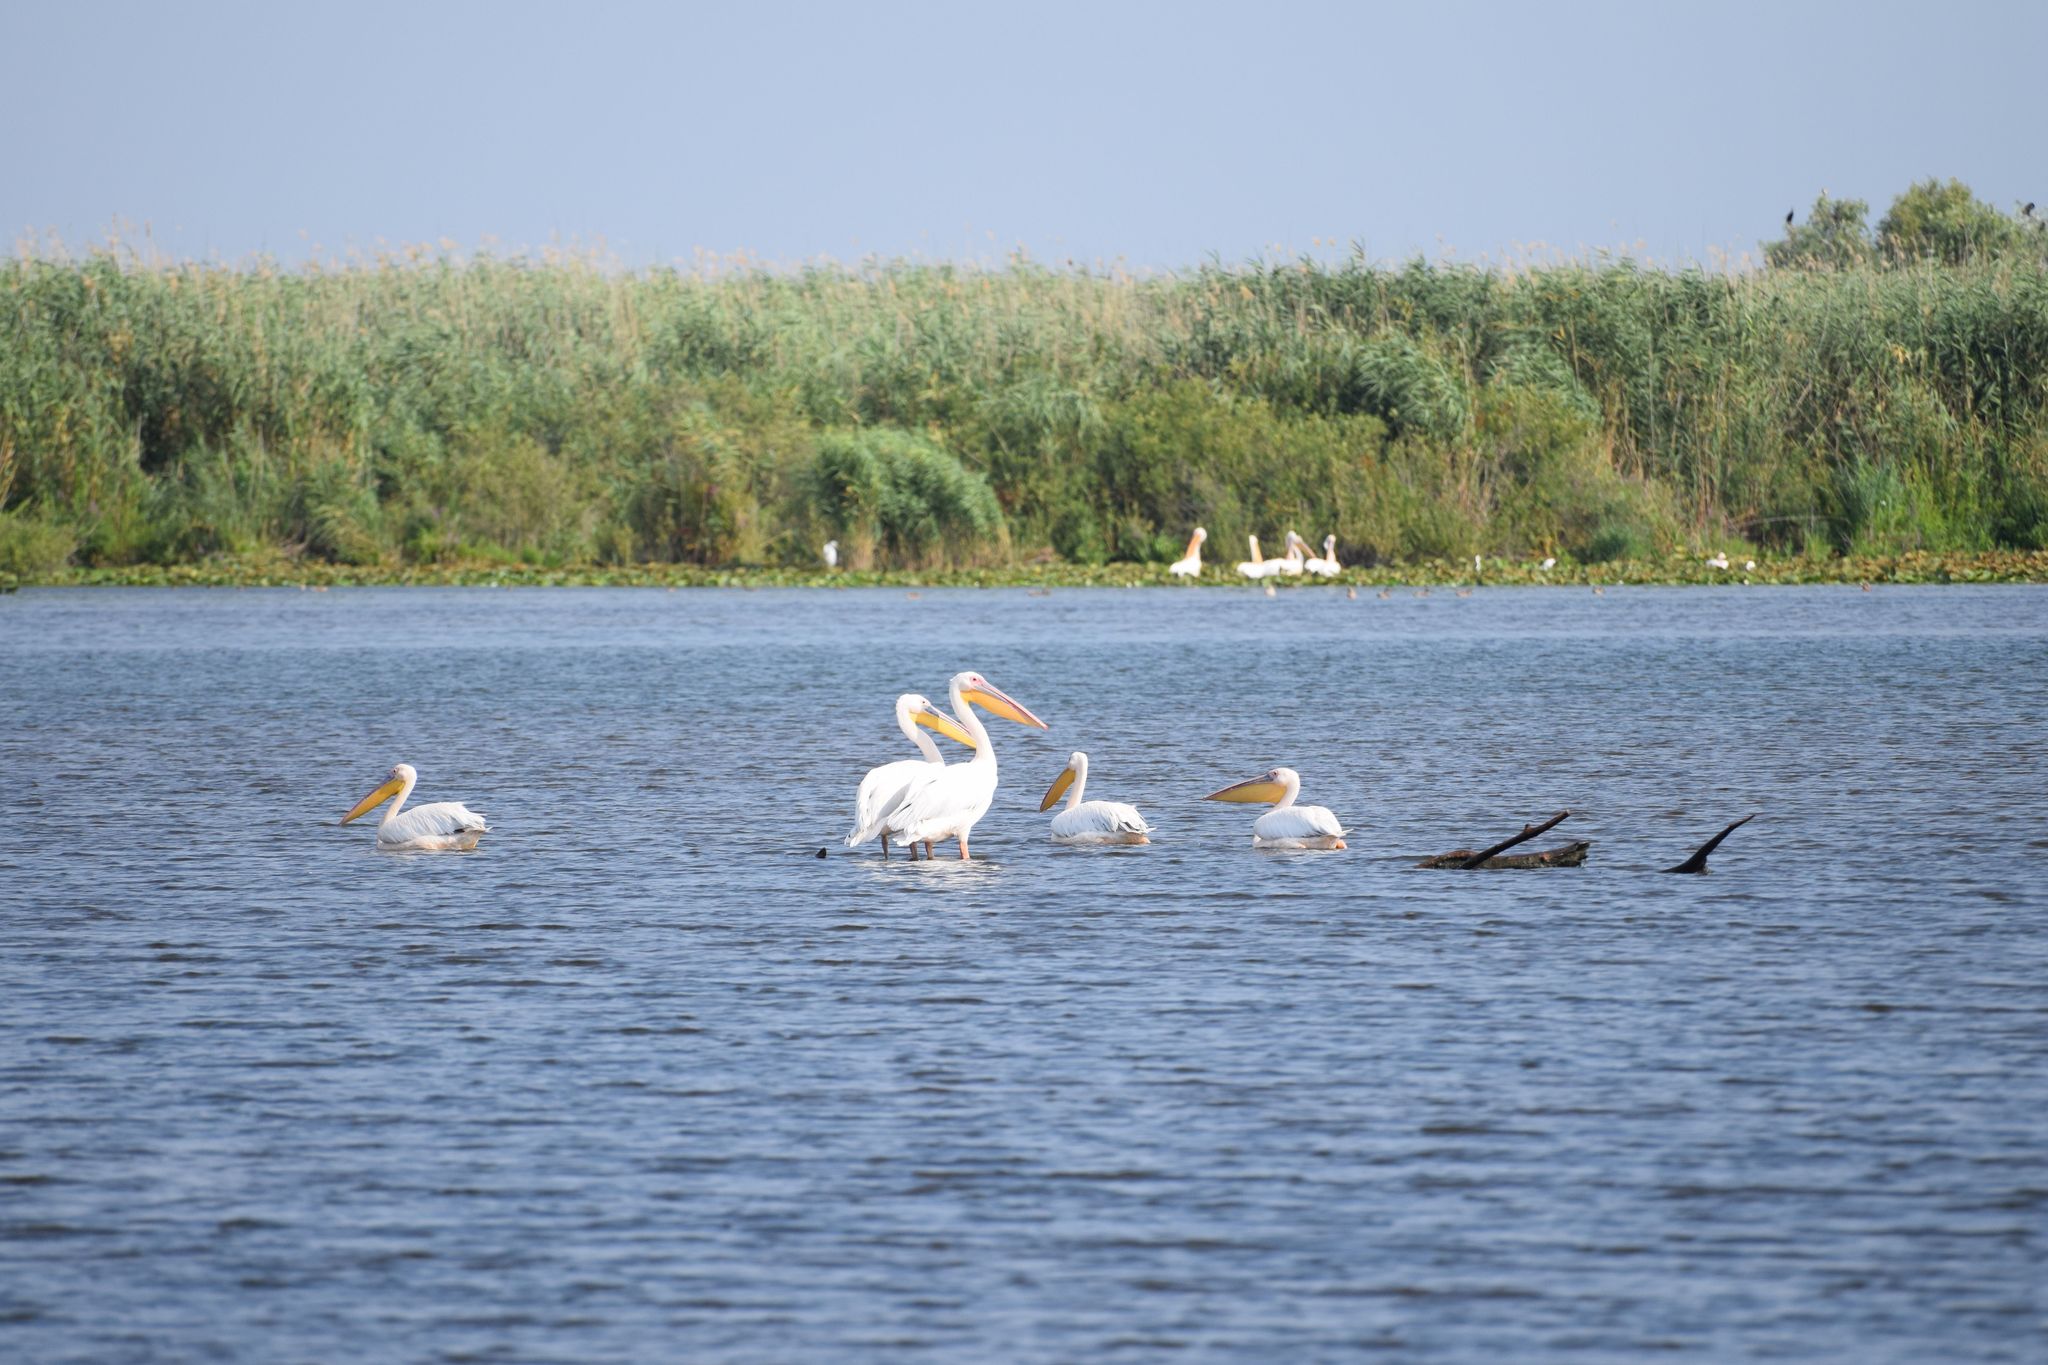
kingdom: Animalia
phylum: Chordata
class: Aves
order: Pelecaniformes
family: Pelecanidae
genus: Pelecanus
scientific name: Pelecanus onocrotalus
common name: Great white pelican
